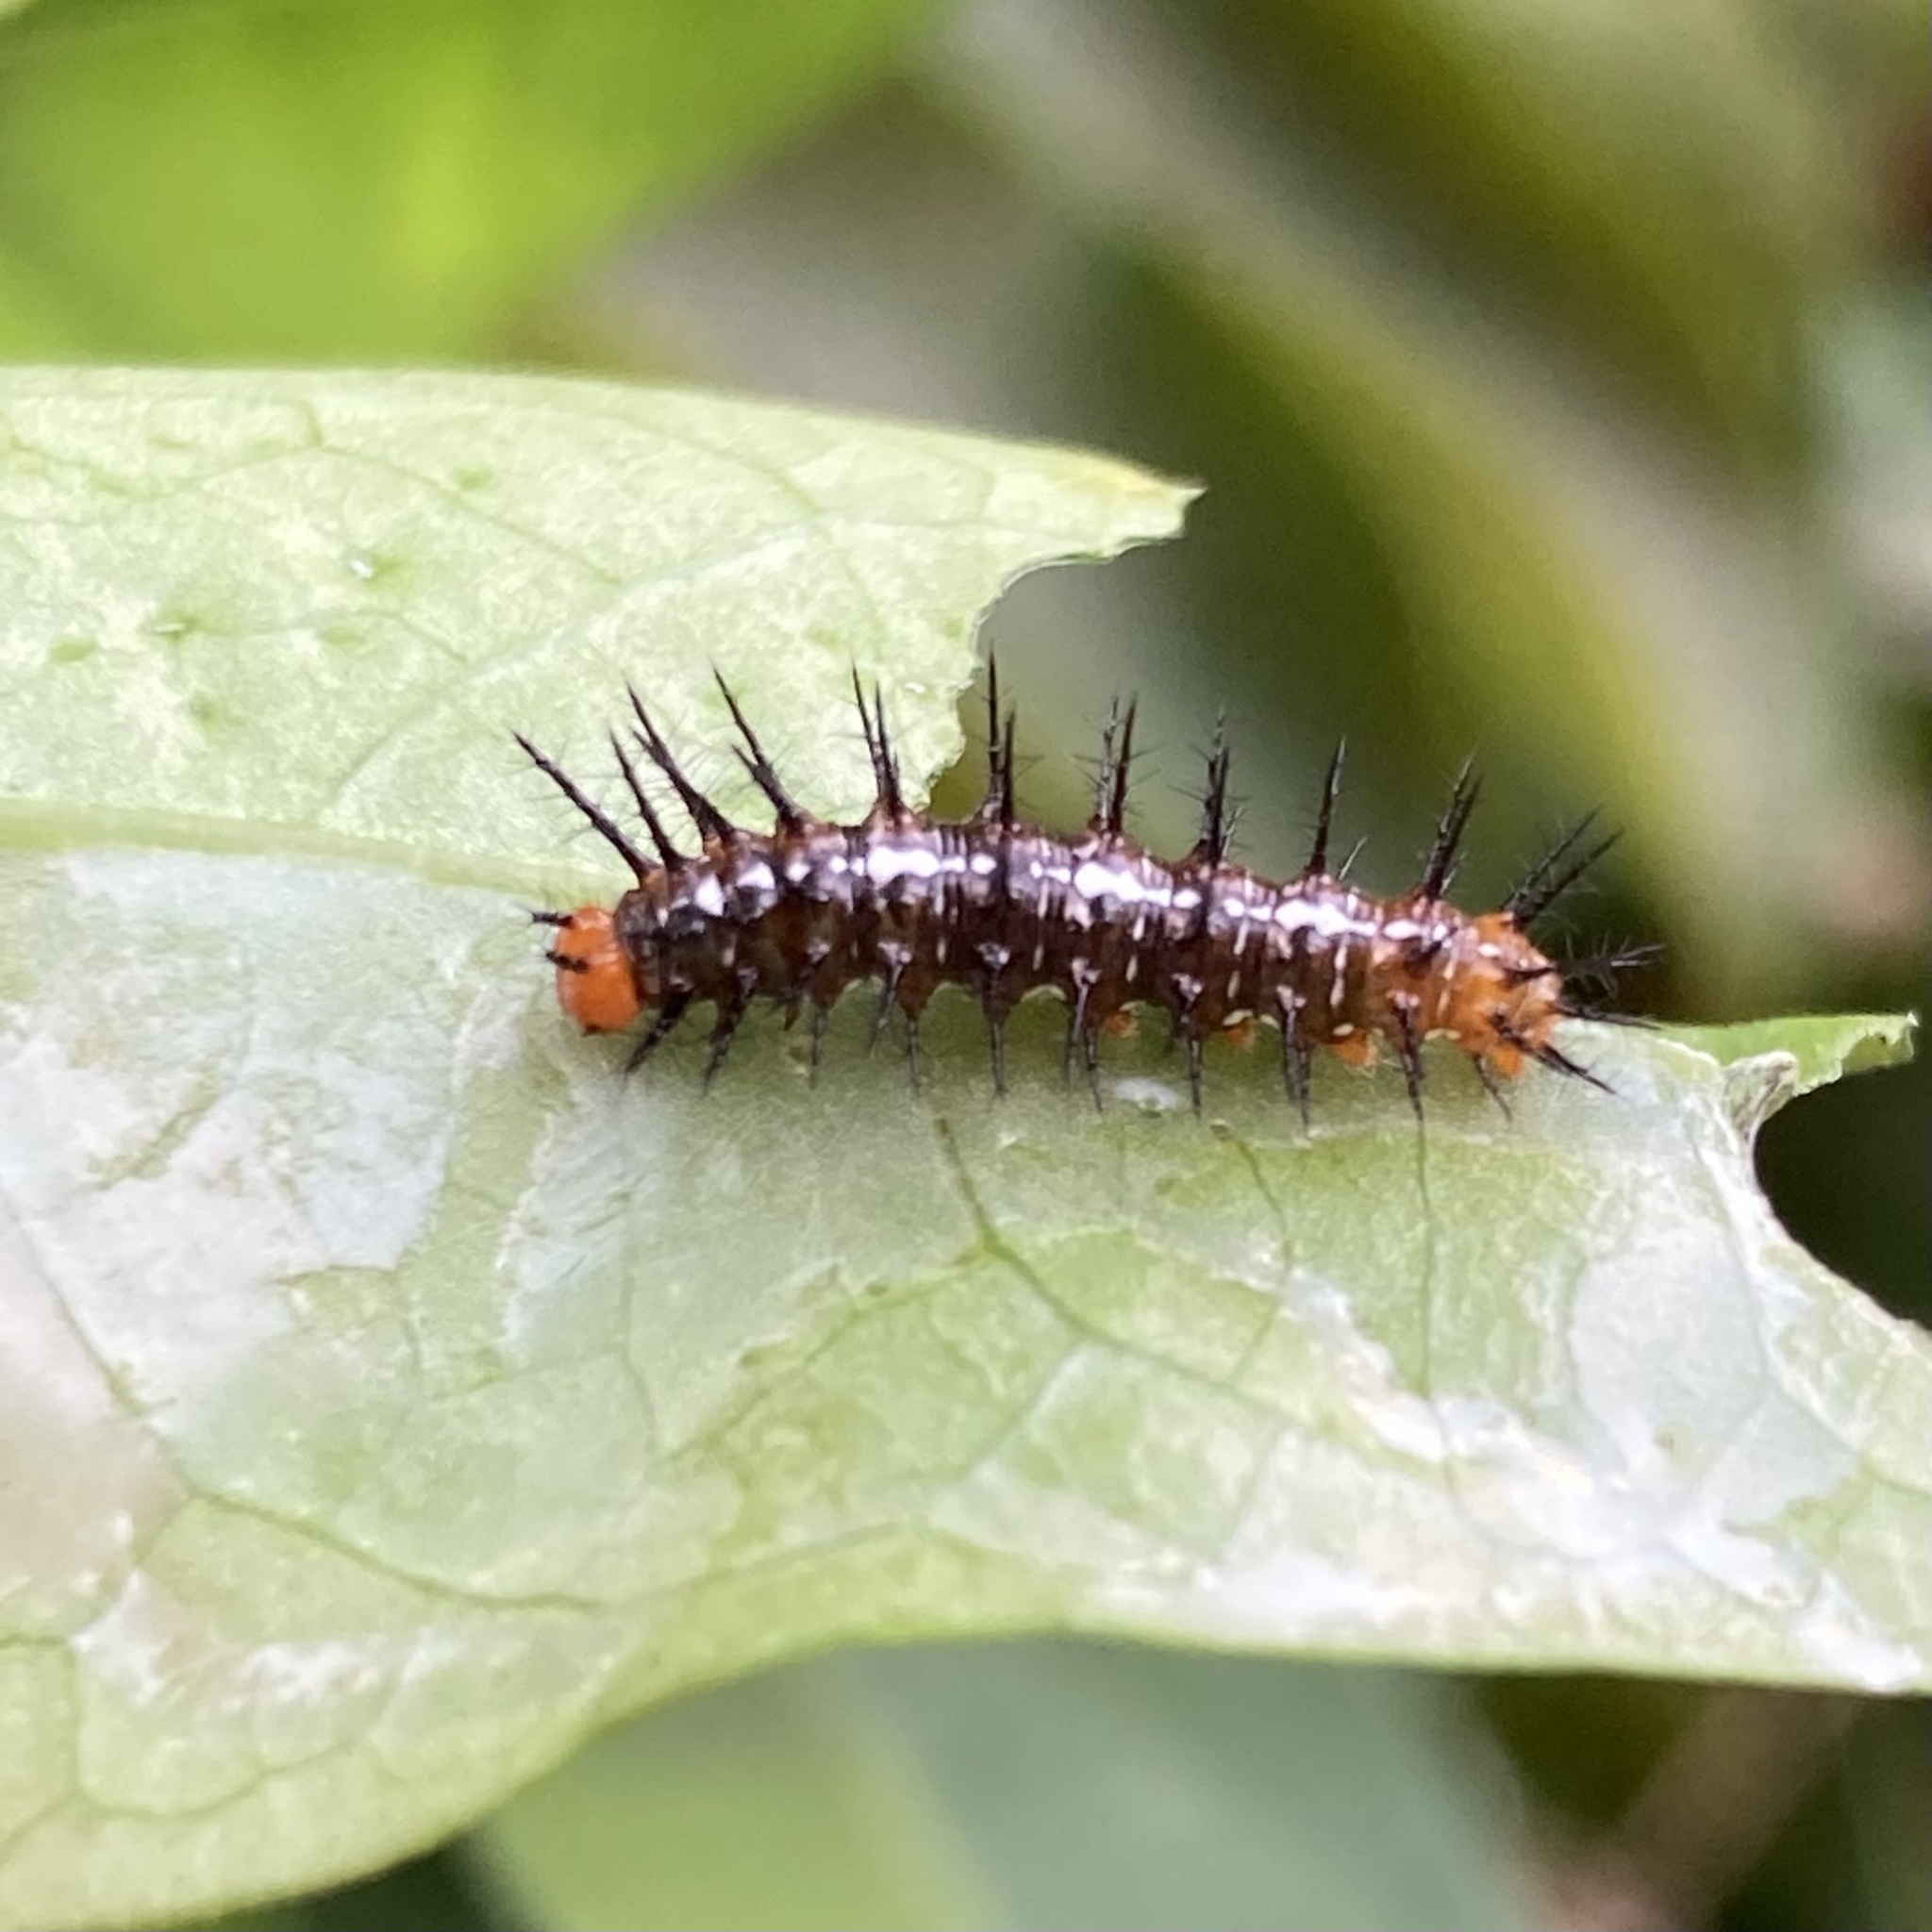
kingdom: Animalia
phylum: Arthropoda
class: Insecta
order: Lepidoptera
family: Nymphalidae
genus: Dryas
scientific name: Dryas iulia
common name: Flambeau
